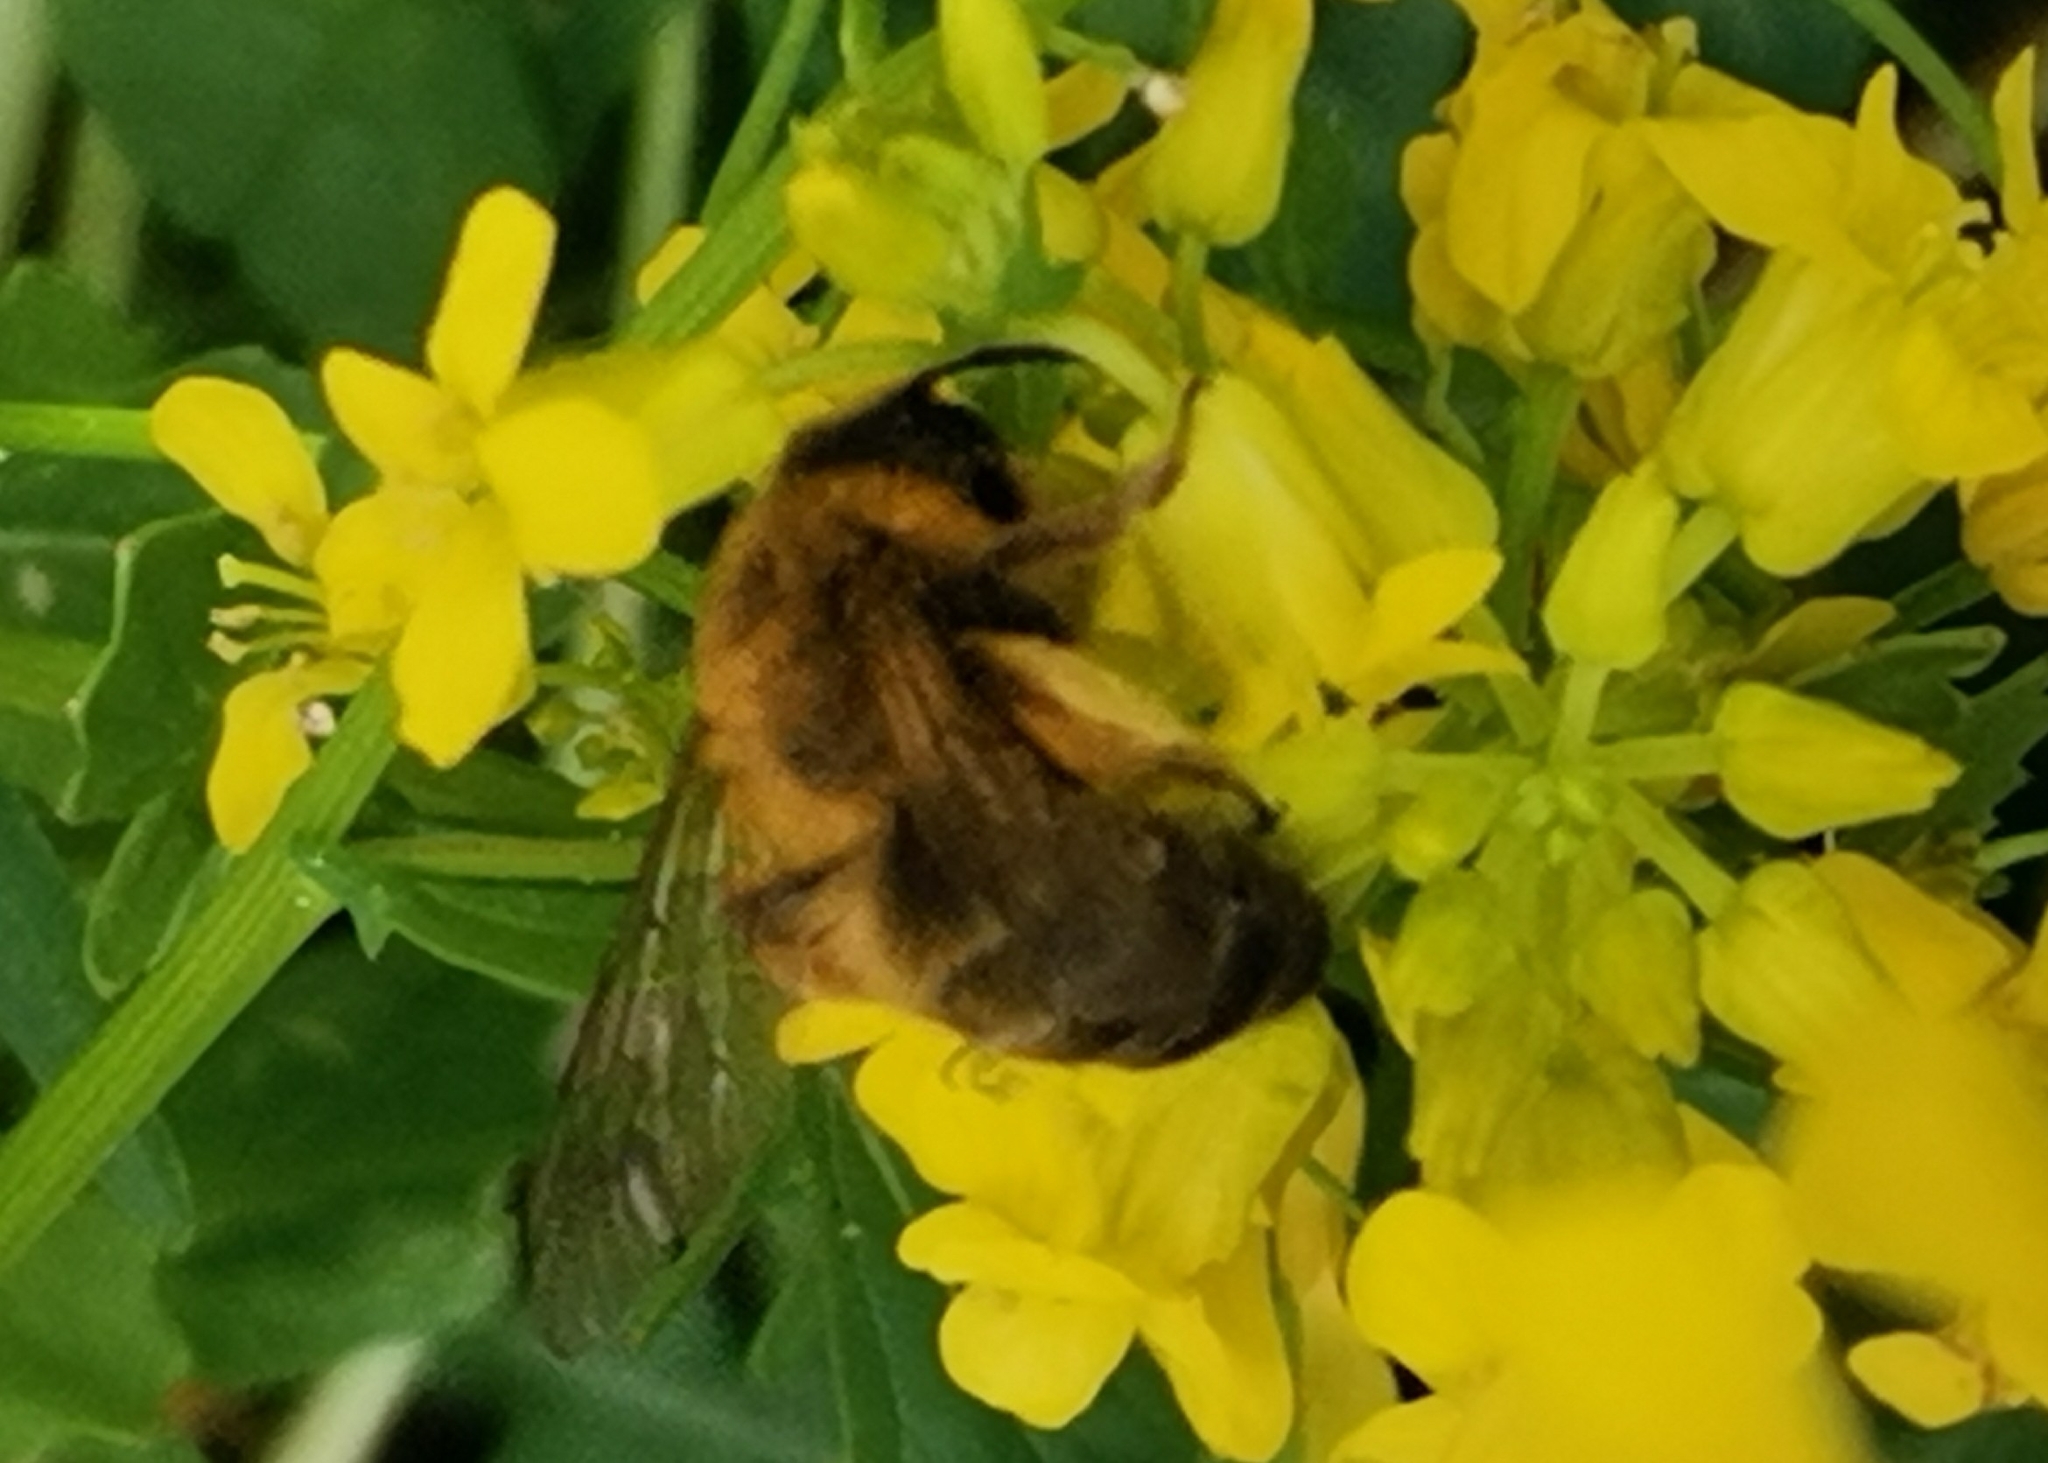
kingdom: Animalia
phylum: Arthropoda
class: Insecta
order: Hymenoptera
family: Andrenidae
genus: Andrena
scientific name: Andrena nigroaenea
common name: Buffish mining bee
